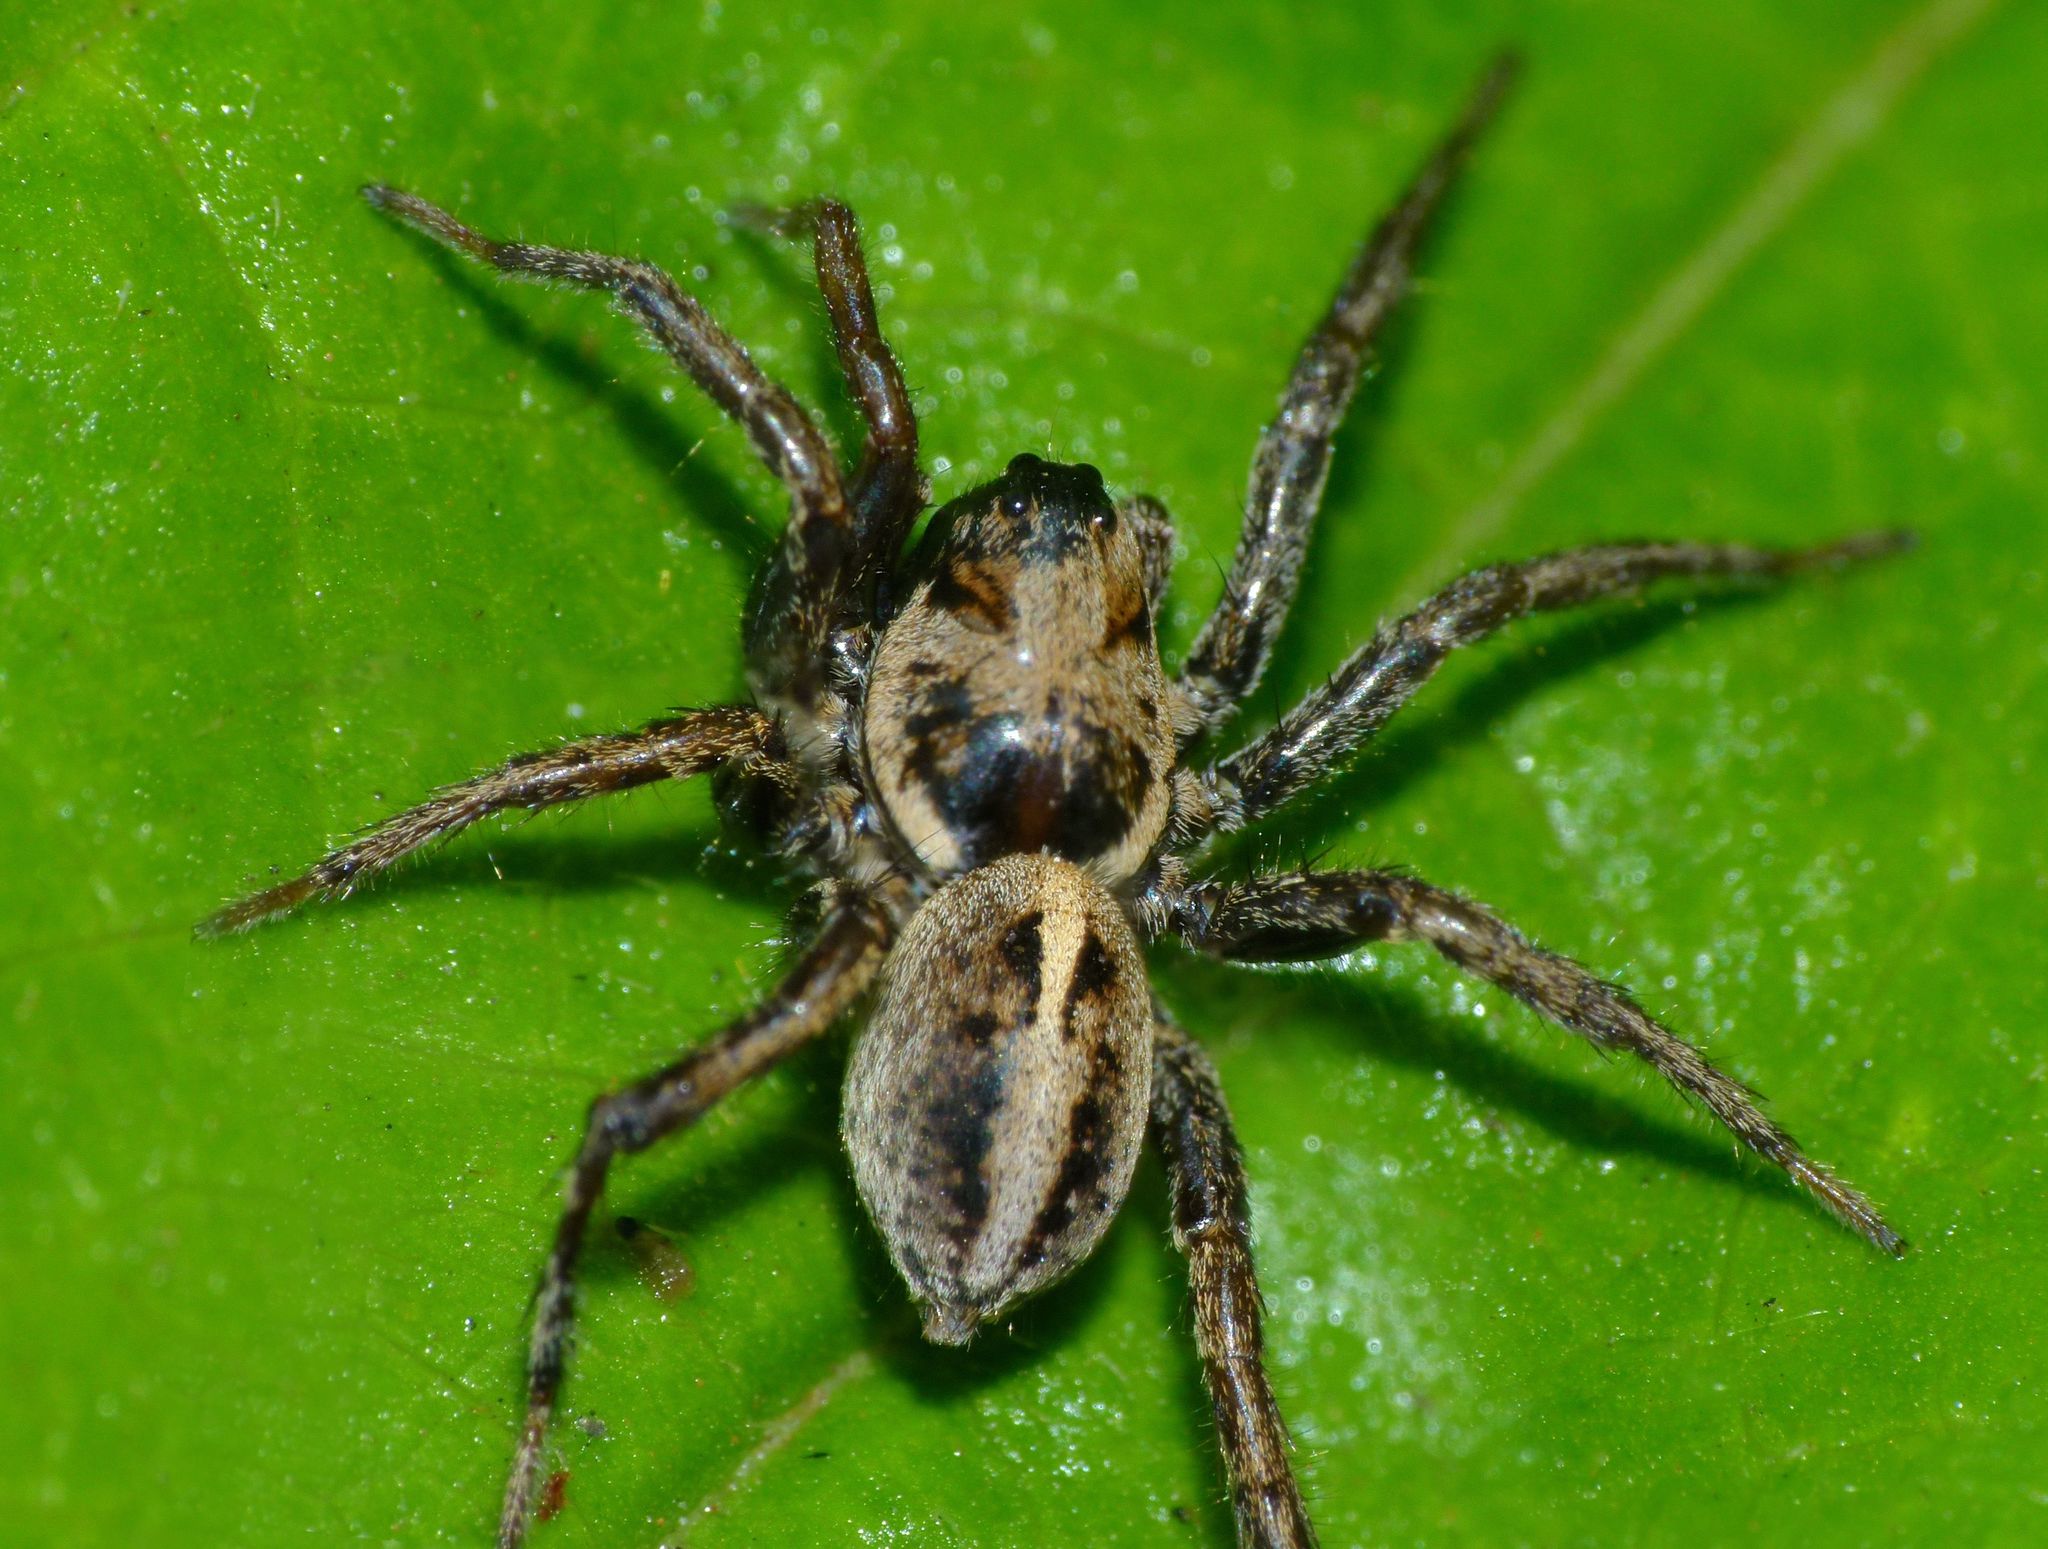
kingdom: Animalia
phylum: Arthropoda
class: Arachnida
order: Araneae
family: Lycosidae
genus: Artoriopsis
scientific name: Artoriopsis melissae
